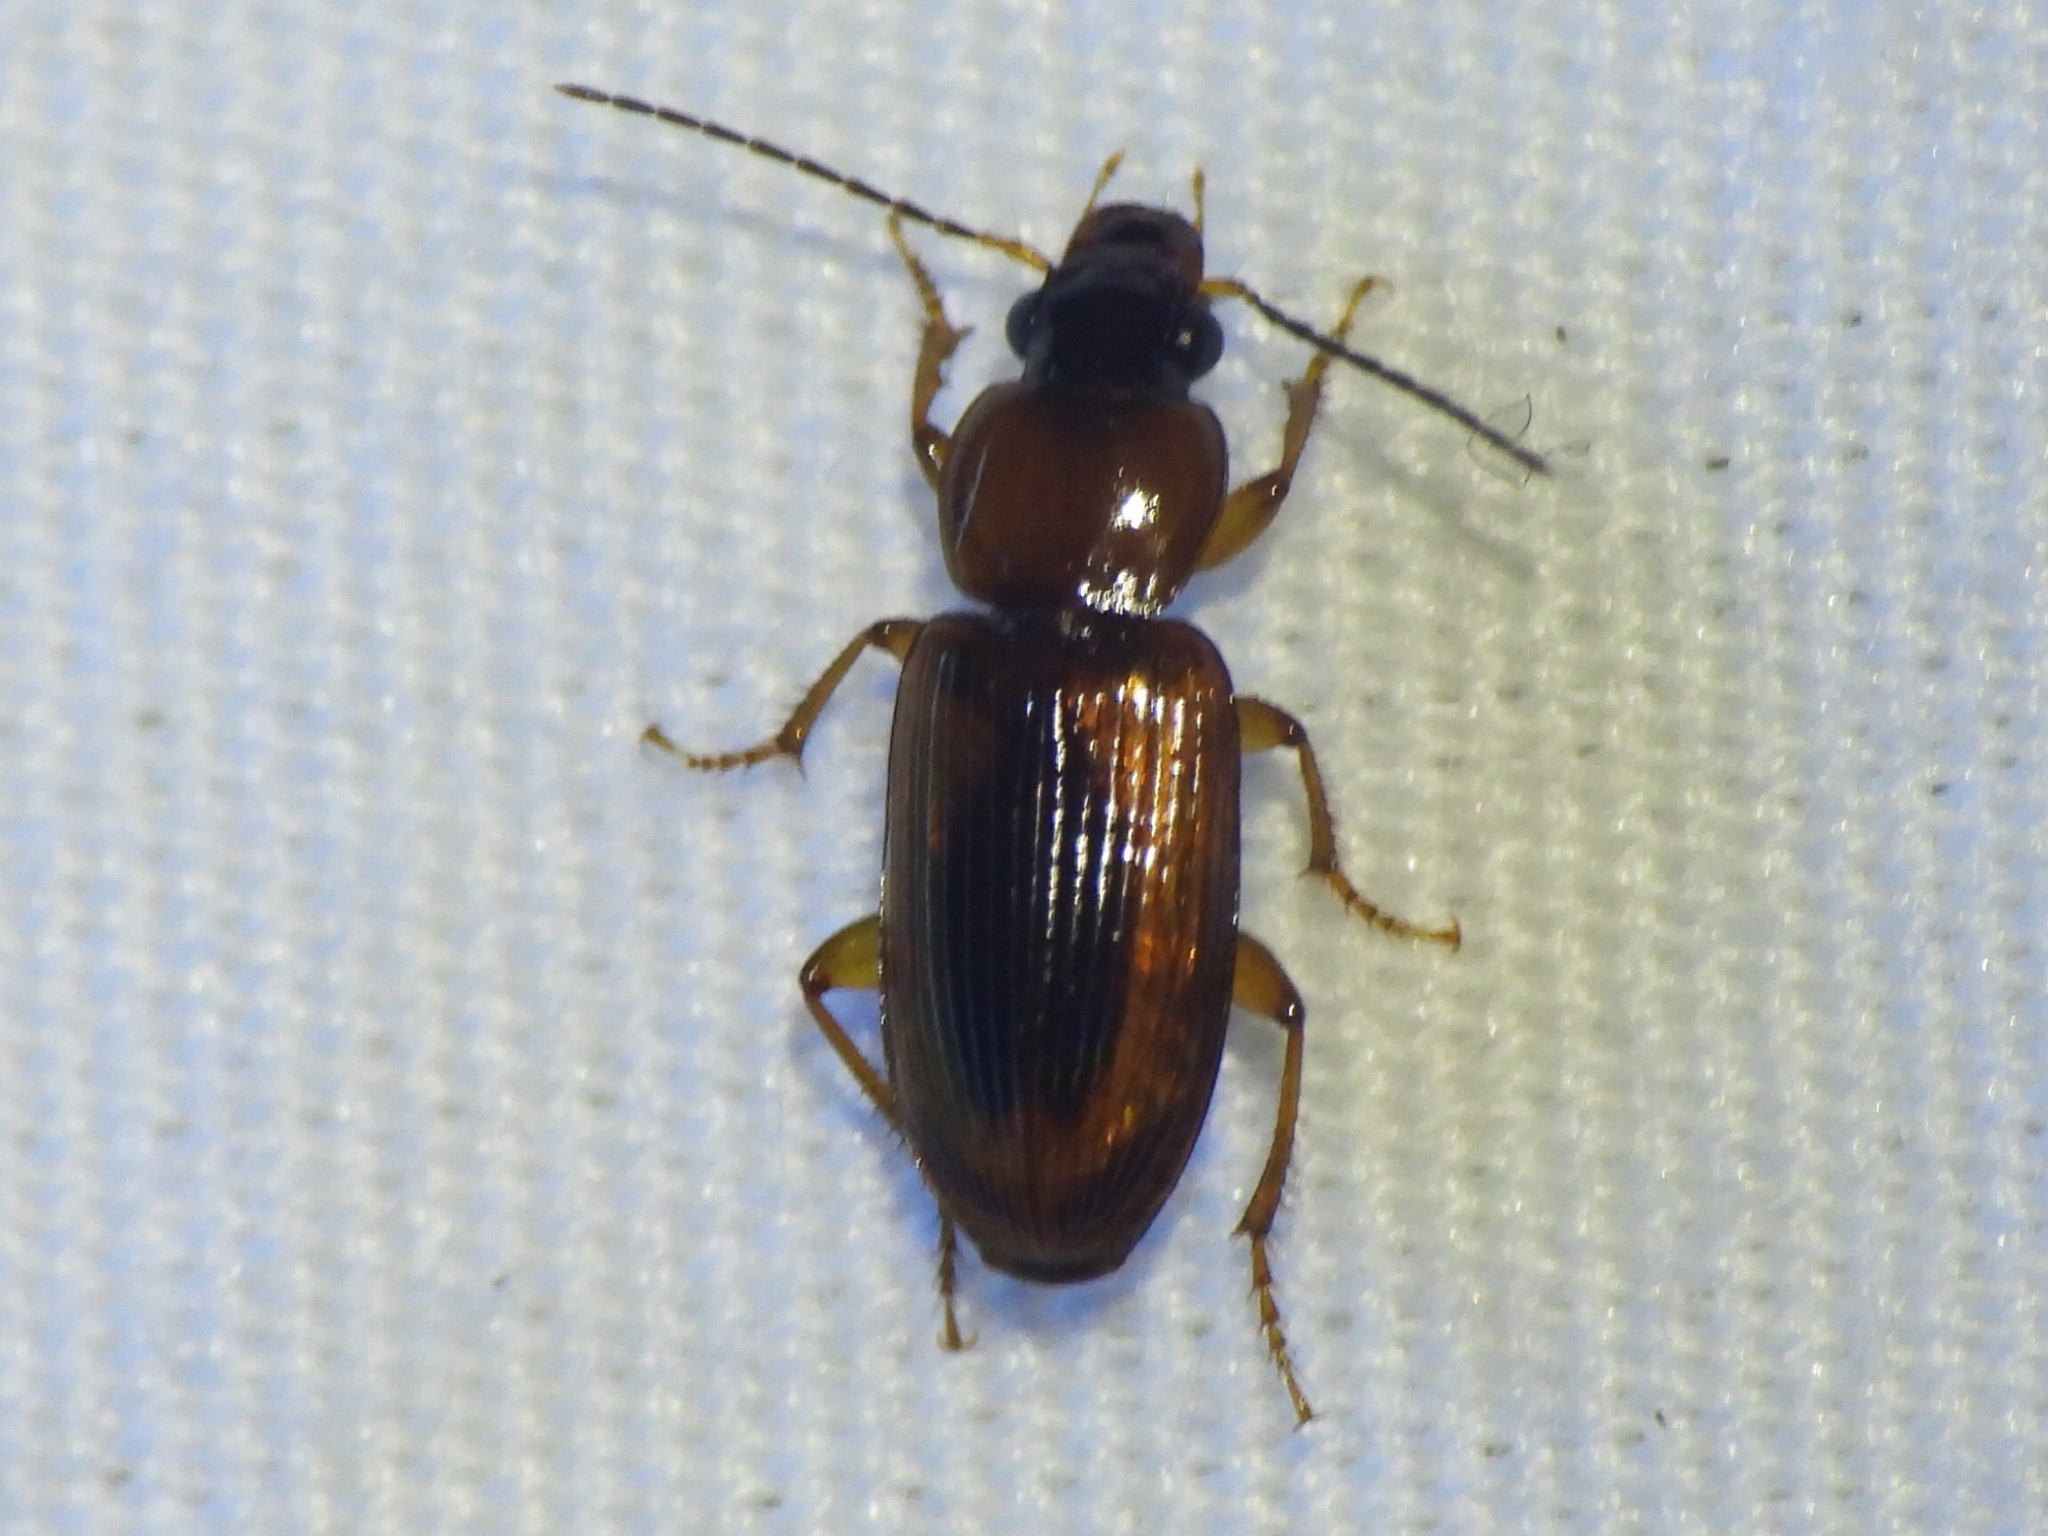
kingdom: Animalia
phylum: Arthropoda
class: Insecta
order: Coleoptera
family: Carabidae
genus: Stenolophus
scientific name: Stenolophus dissimilis
